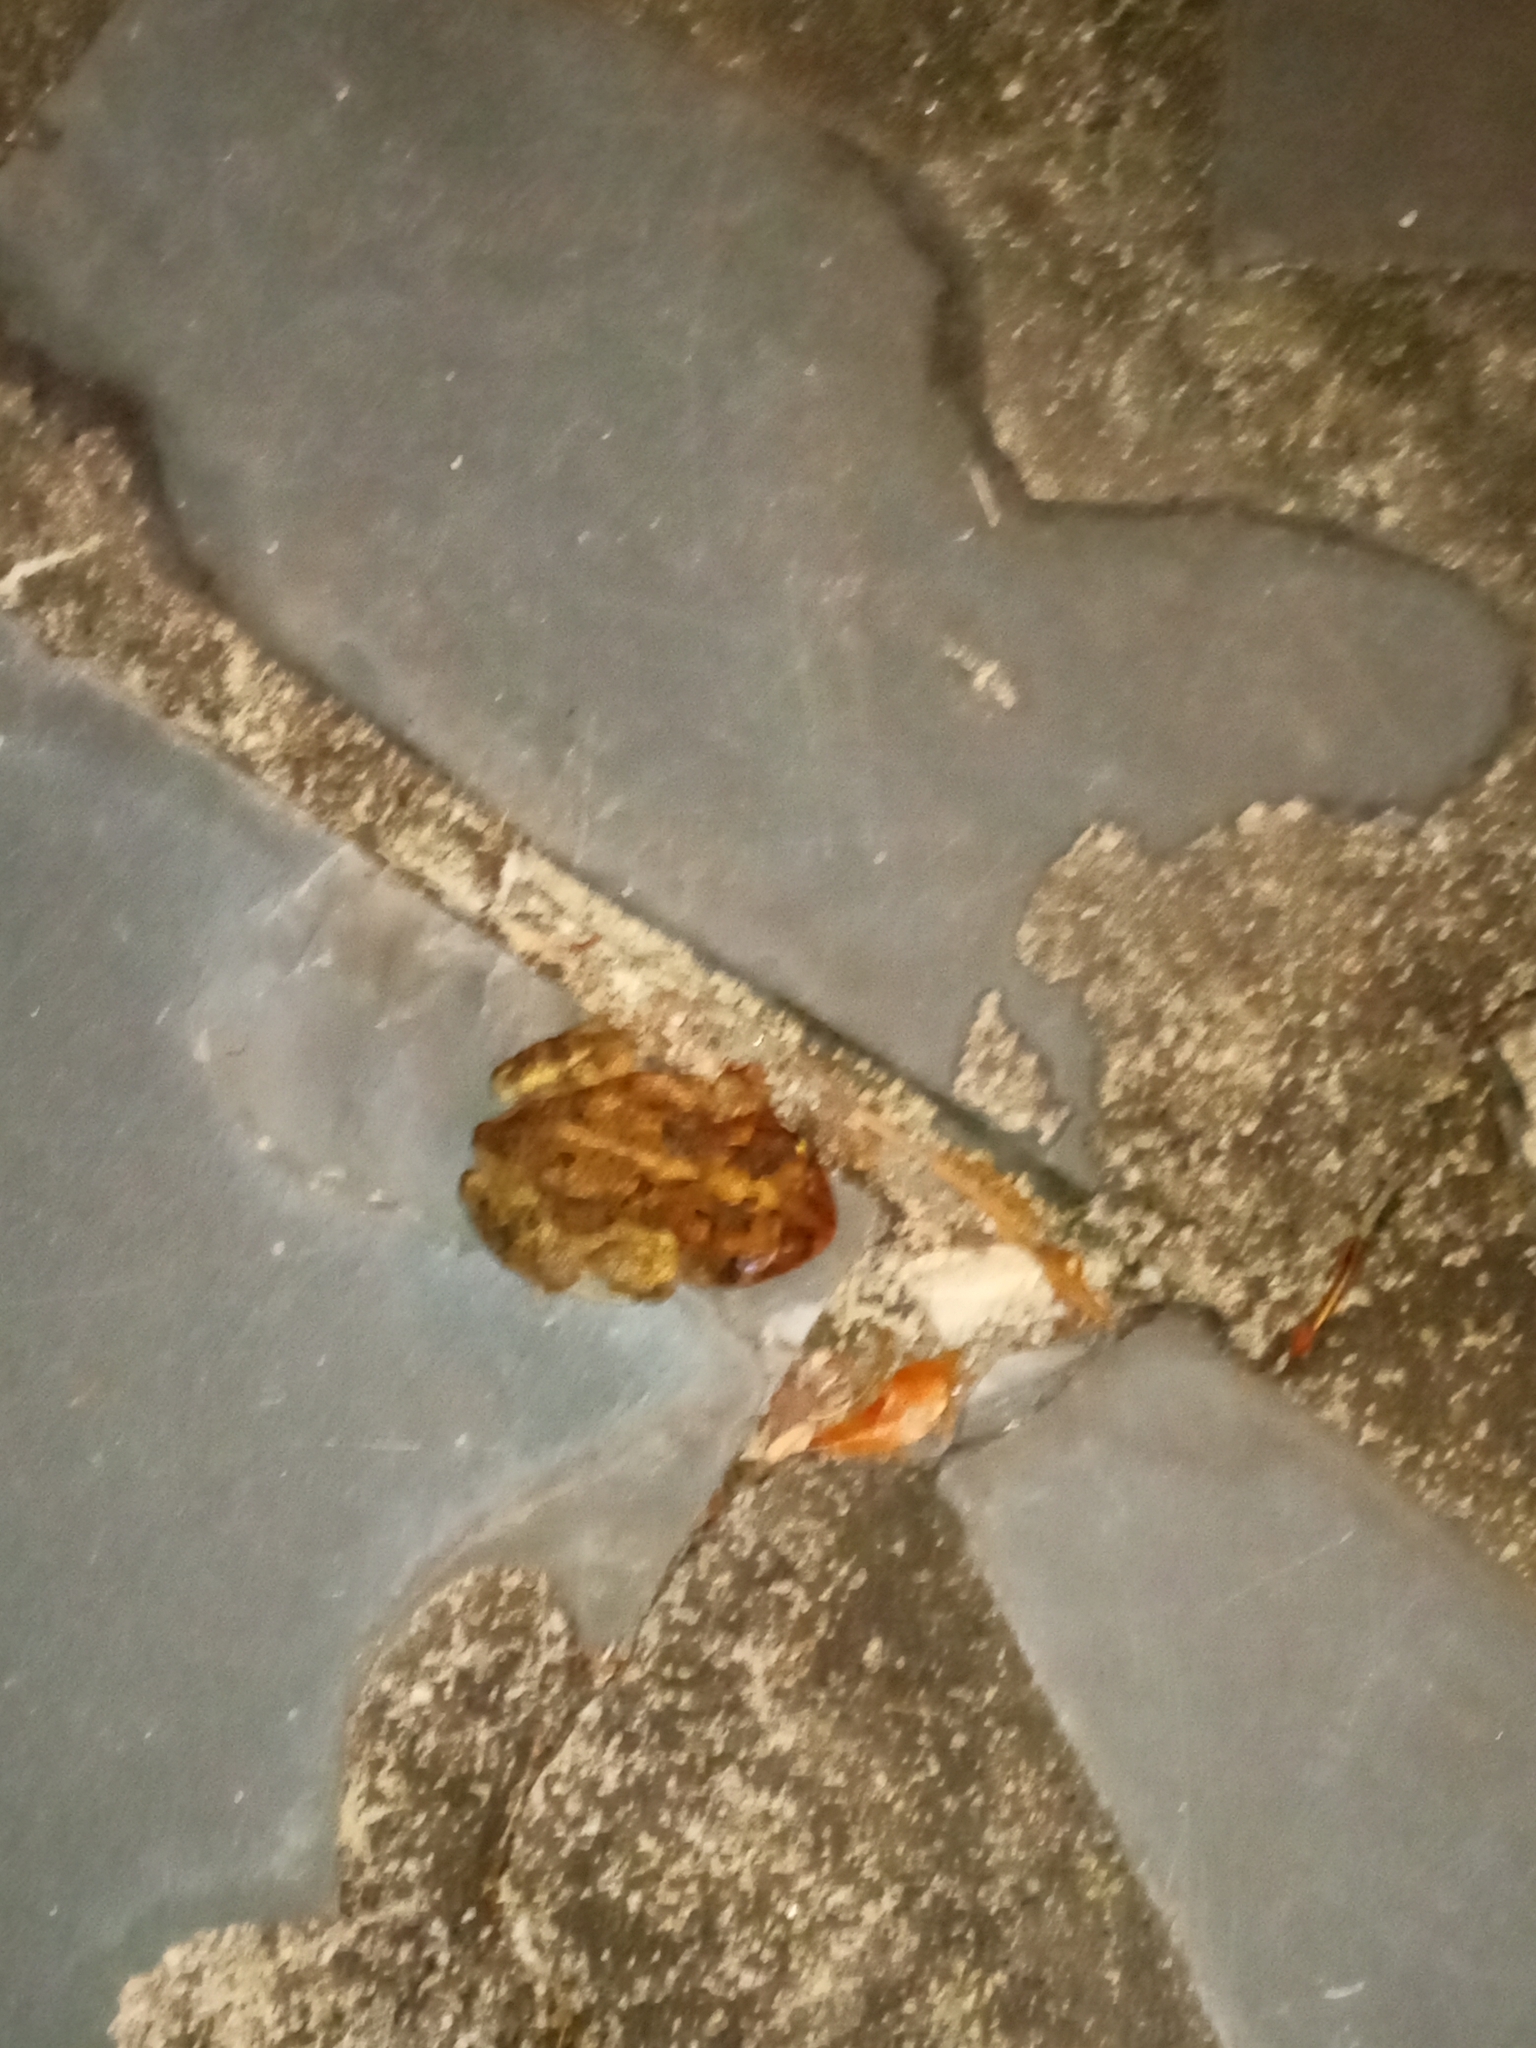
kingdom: Animalia
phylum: Chordata
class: Amphibia
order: Anura
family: Bufonidae
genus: Anaxyrus
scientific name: Anaxyrus terrestris
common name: Southern toad
